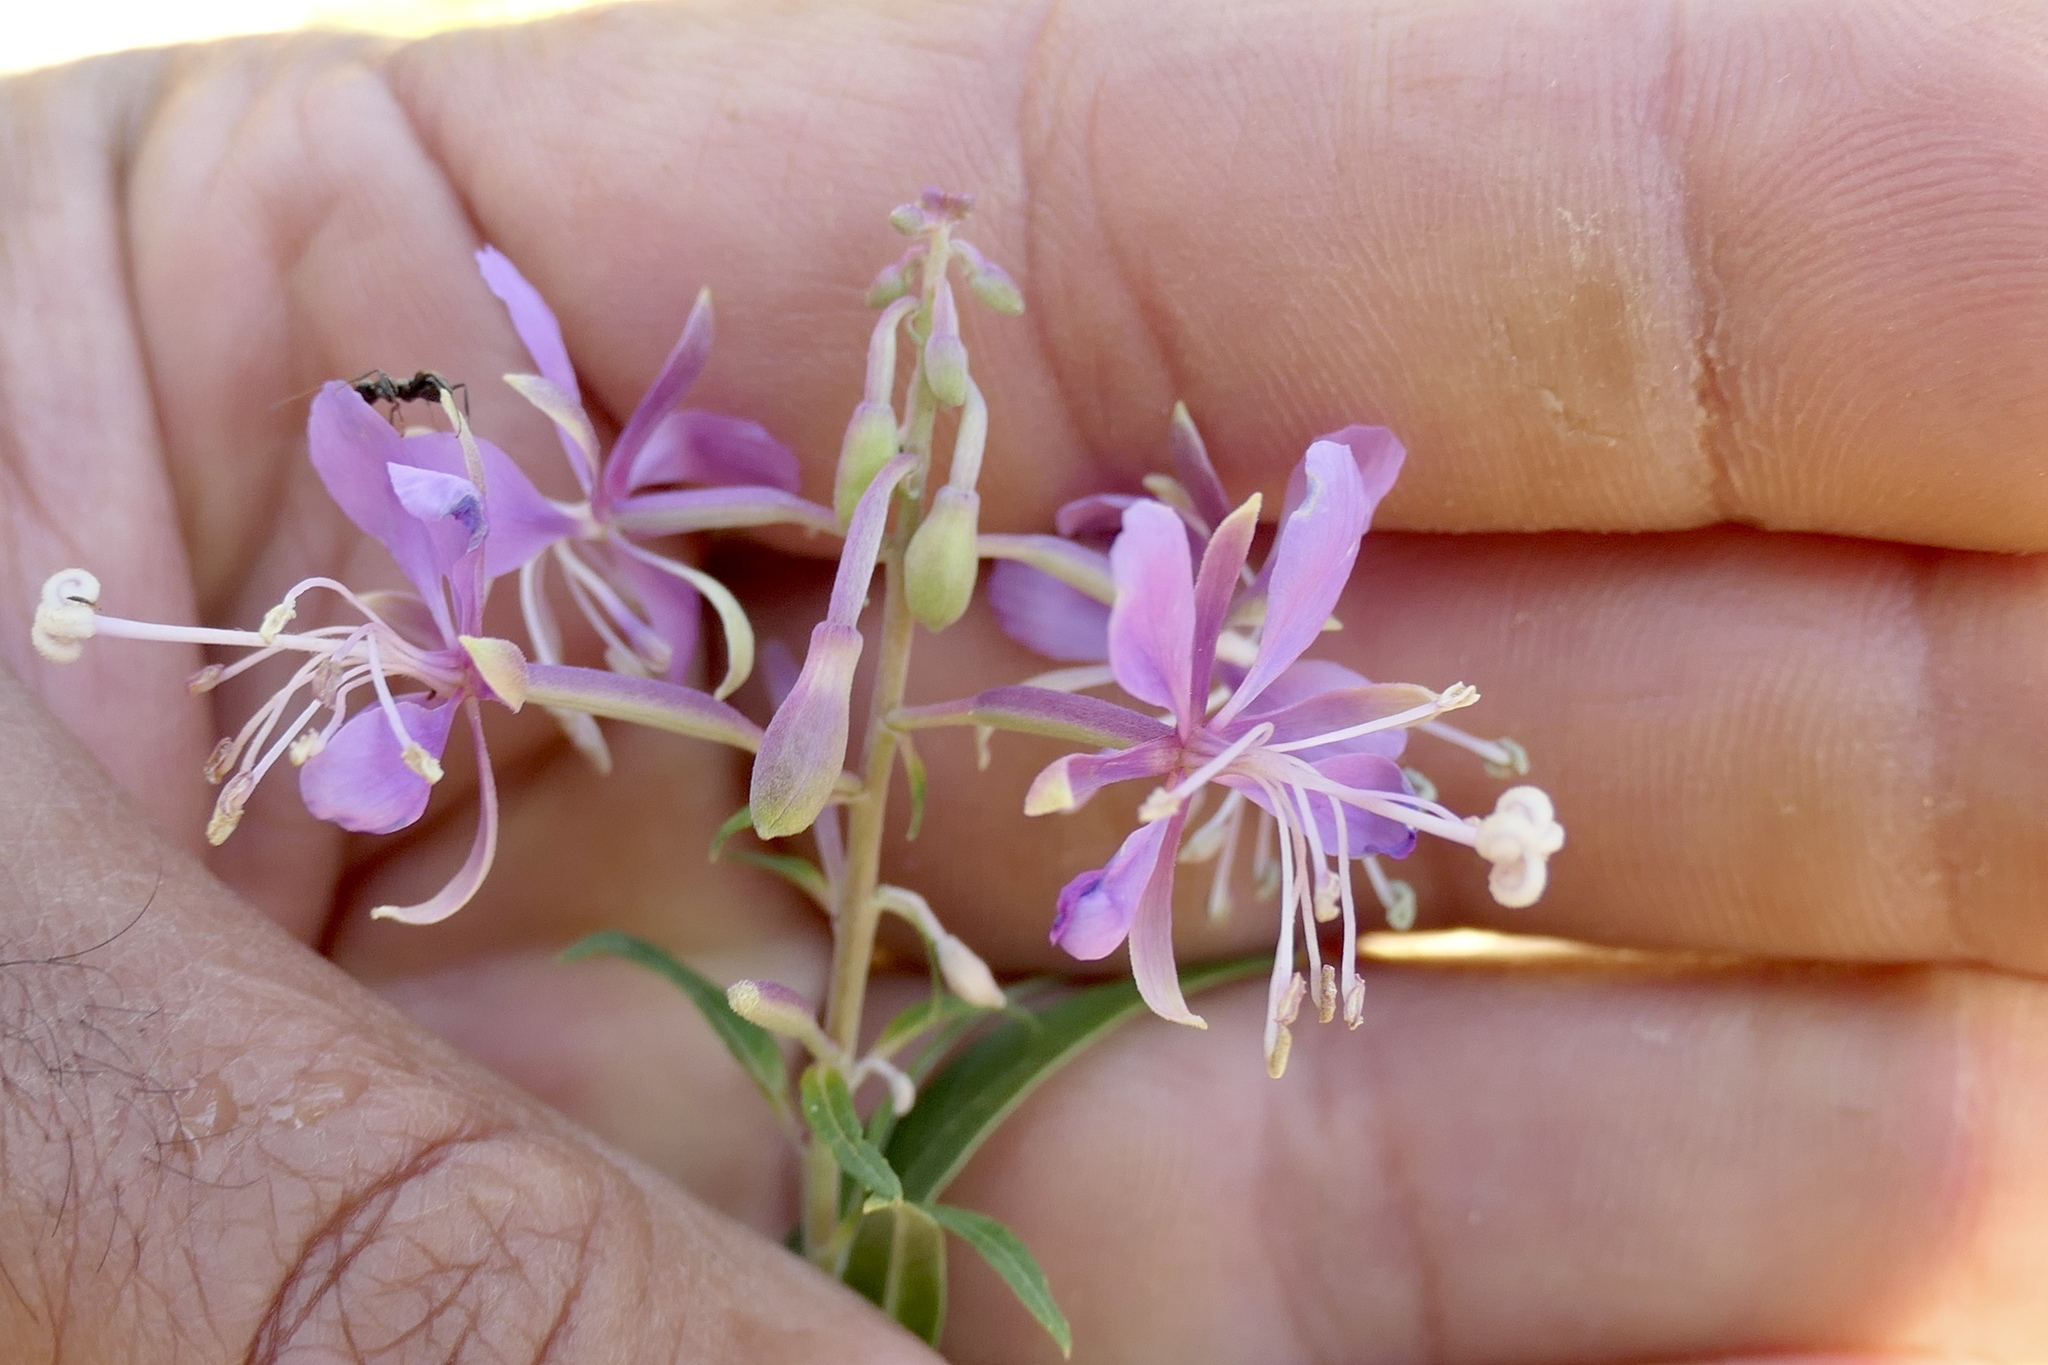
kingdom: Plantae
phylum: Tracheophyta
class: Magnoliopsida
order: Myrtales
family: Onagraceae
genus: Chamaenerion
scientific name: Chamaenerion angustifolium
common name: Fireweed
